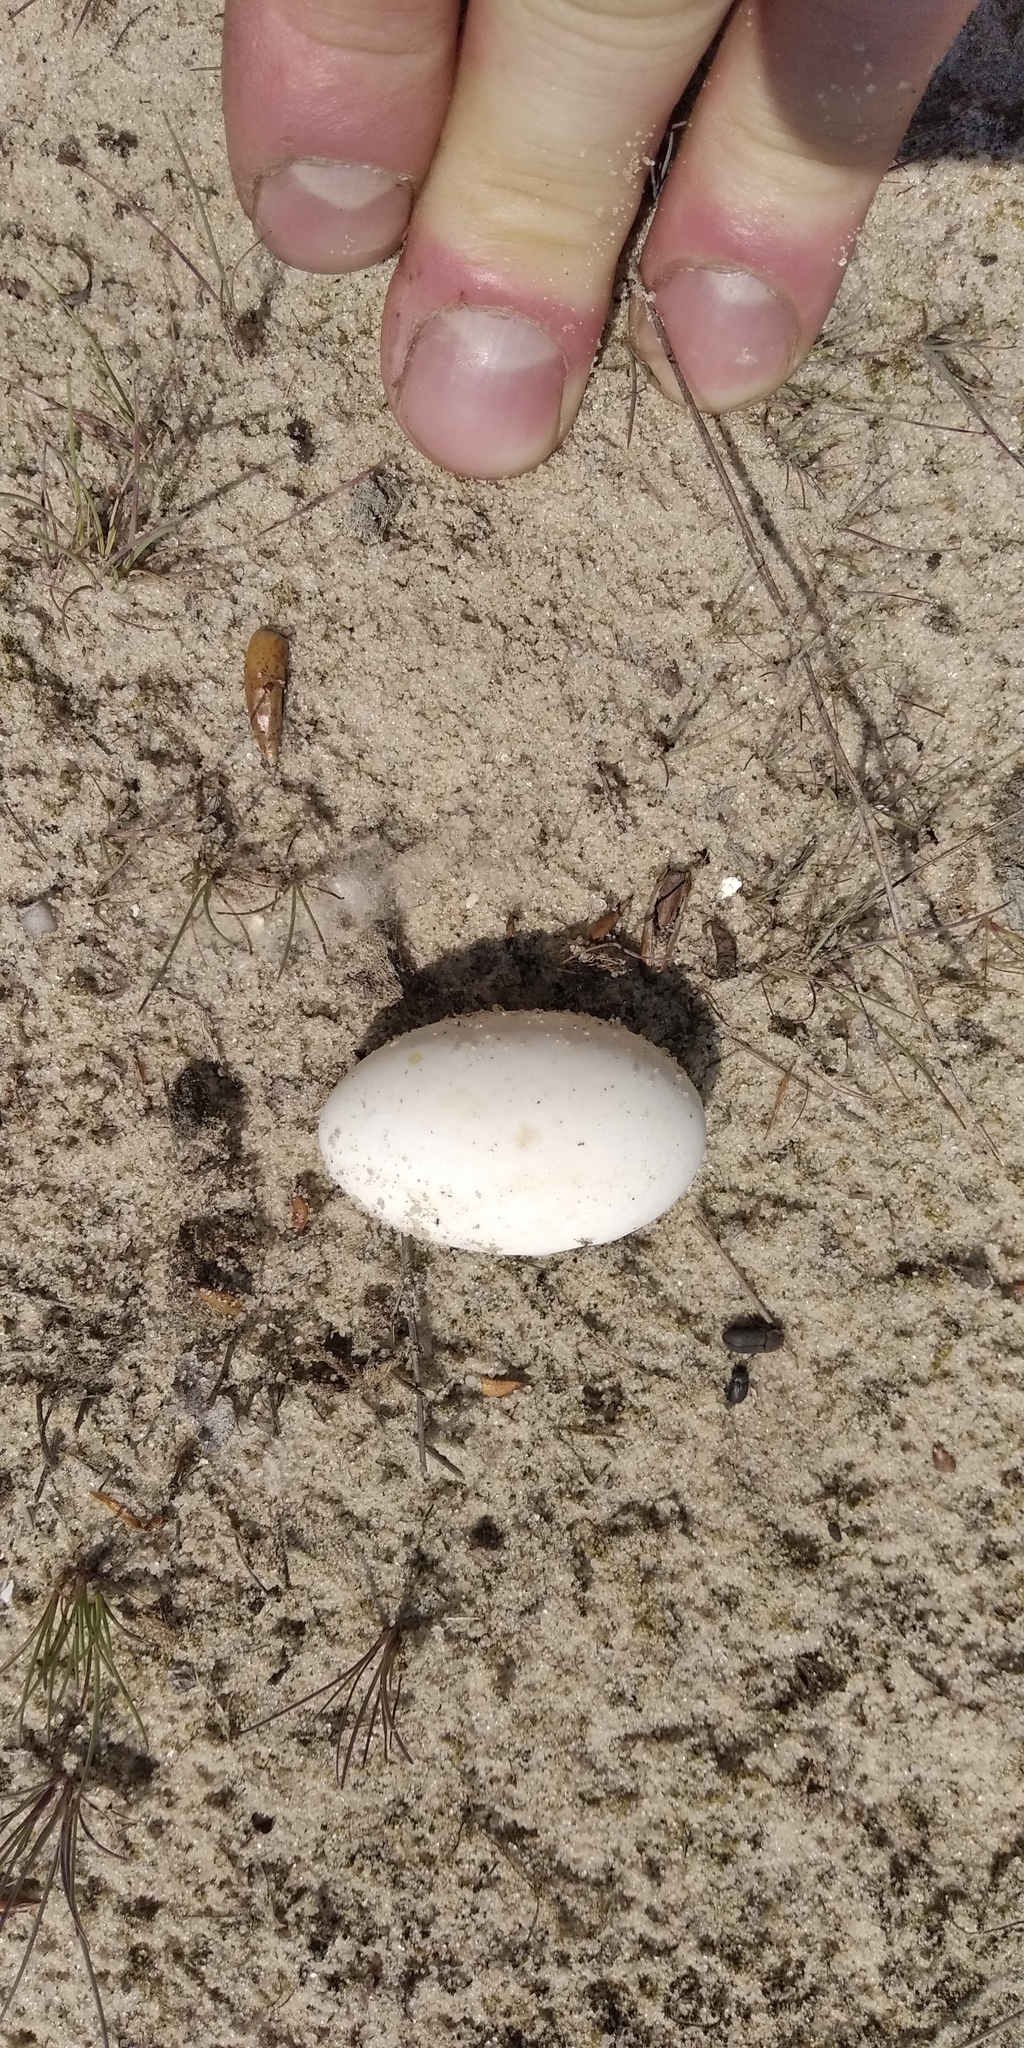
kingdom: Animalia
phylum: Chordata
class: Testudines
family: Emydidae
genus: Emys
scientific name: Emys orbicularis
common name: European pond turtle
